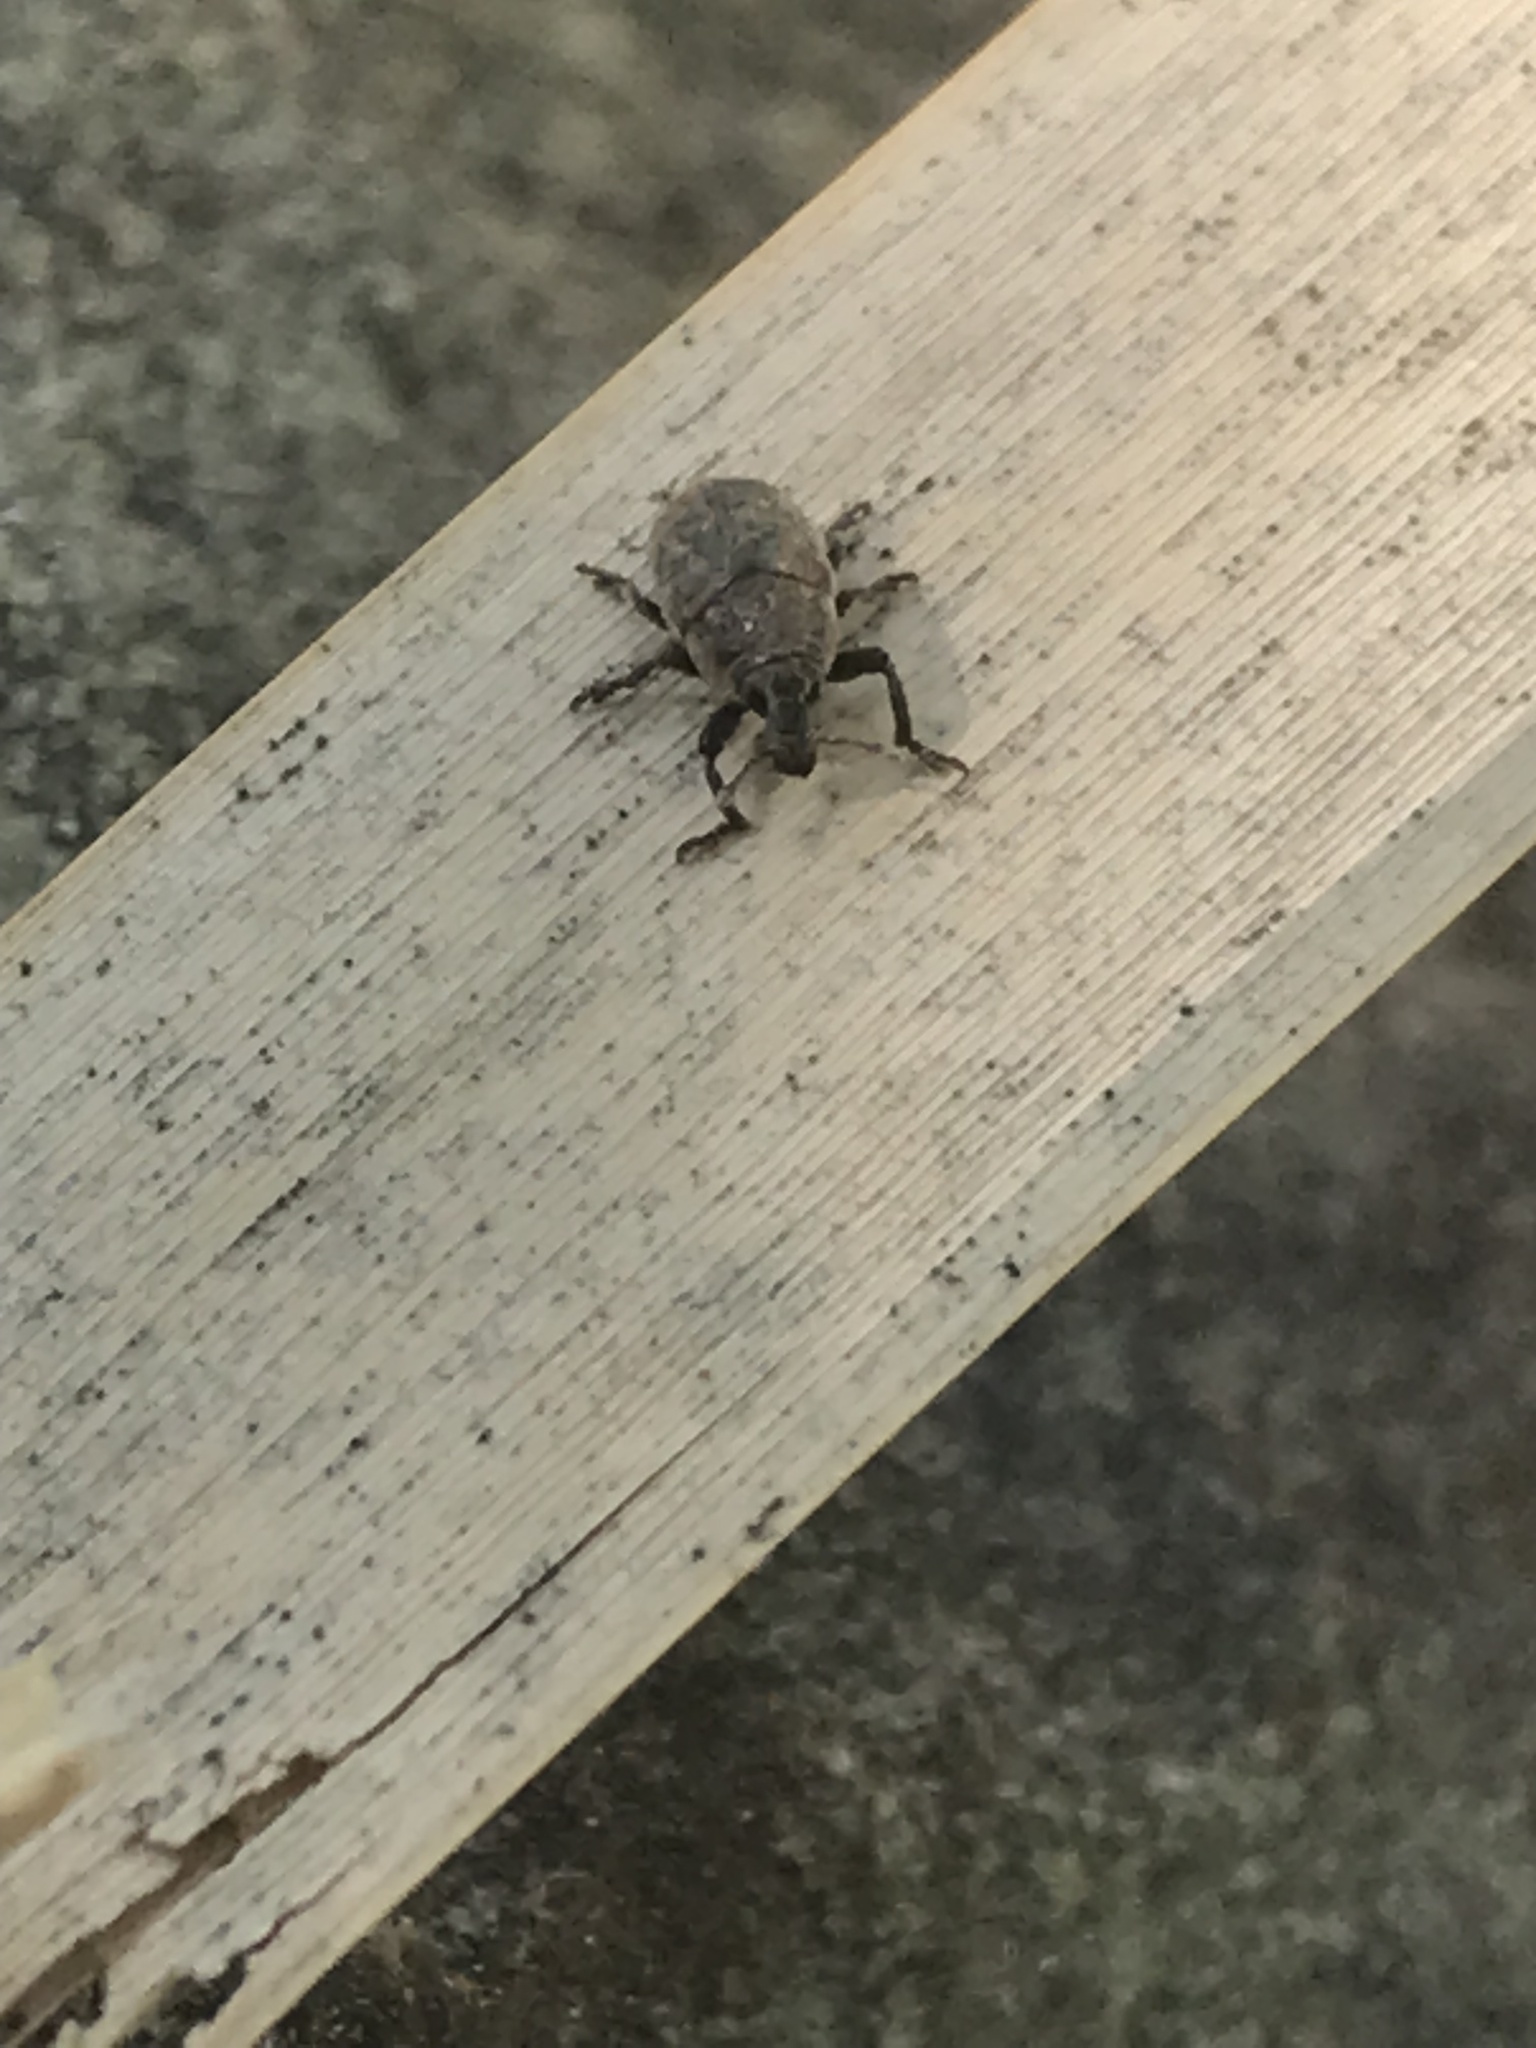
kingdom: Animalia
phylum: Arthropoda
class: Insecta
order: Coleoptera
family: Curculionidae
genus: Larinus
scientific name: Larinus obtusus
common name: Weevil
